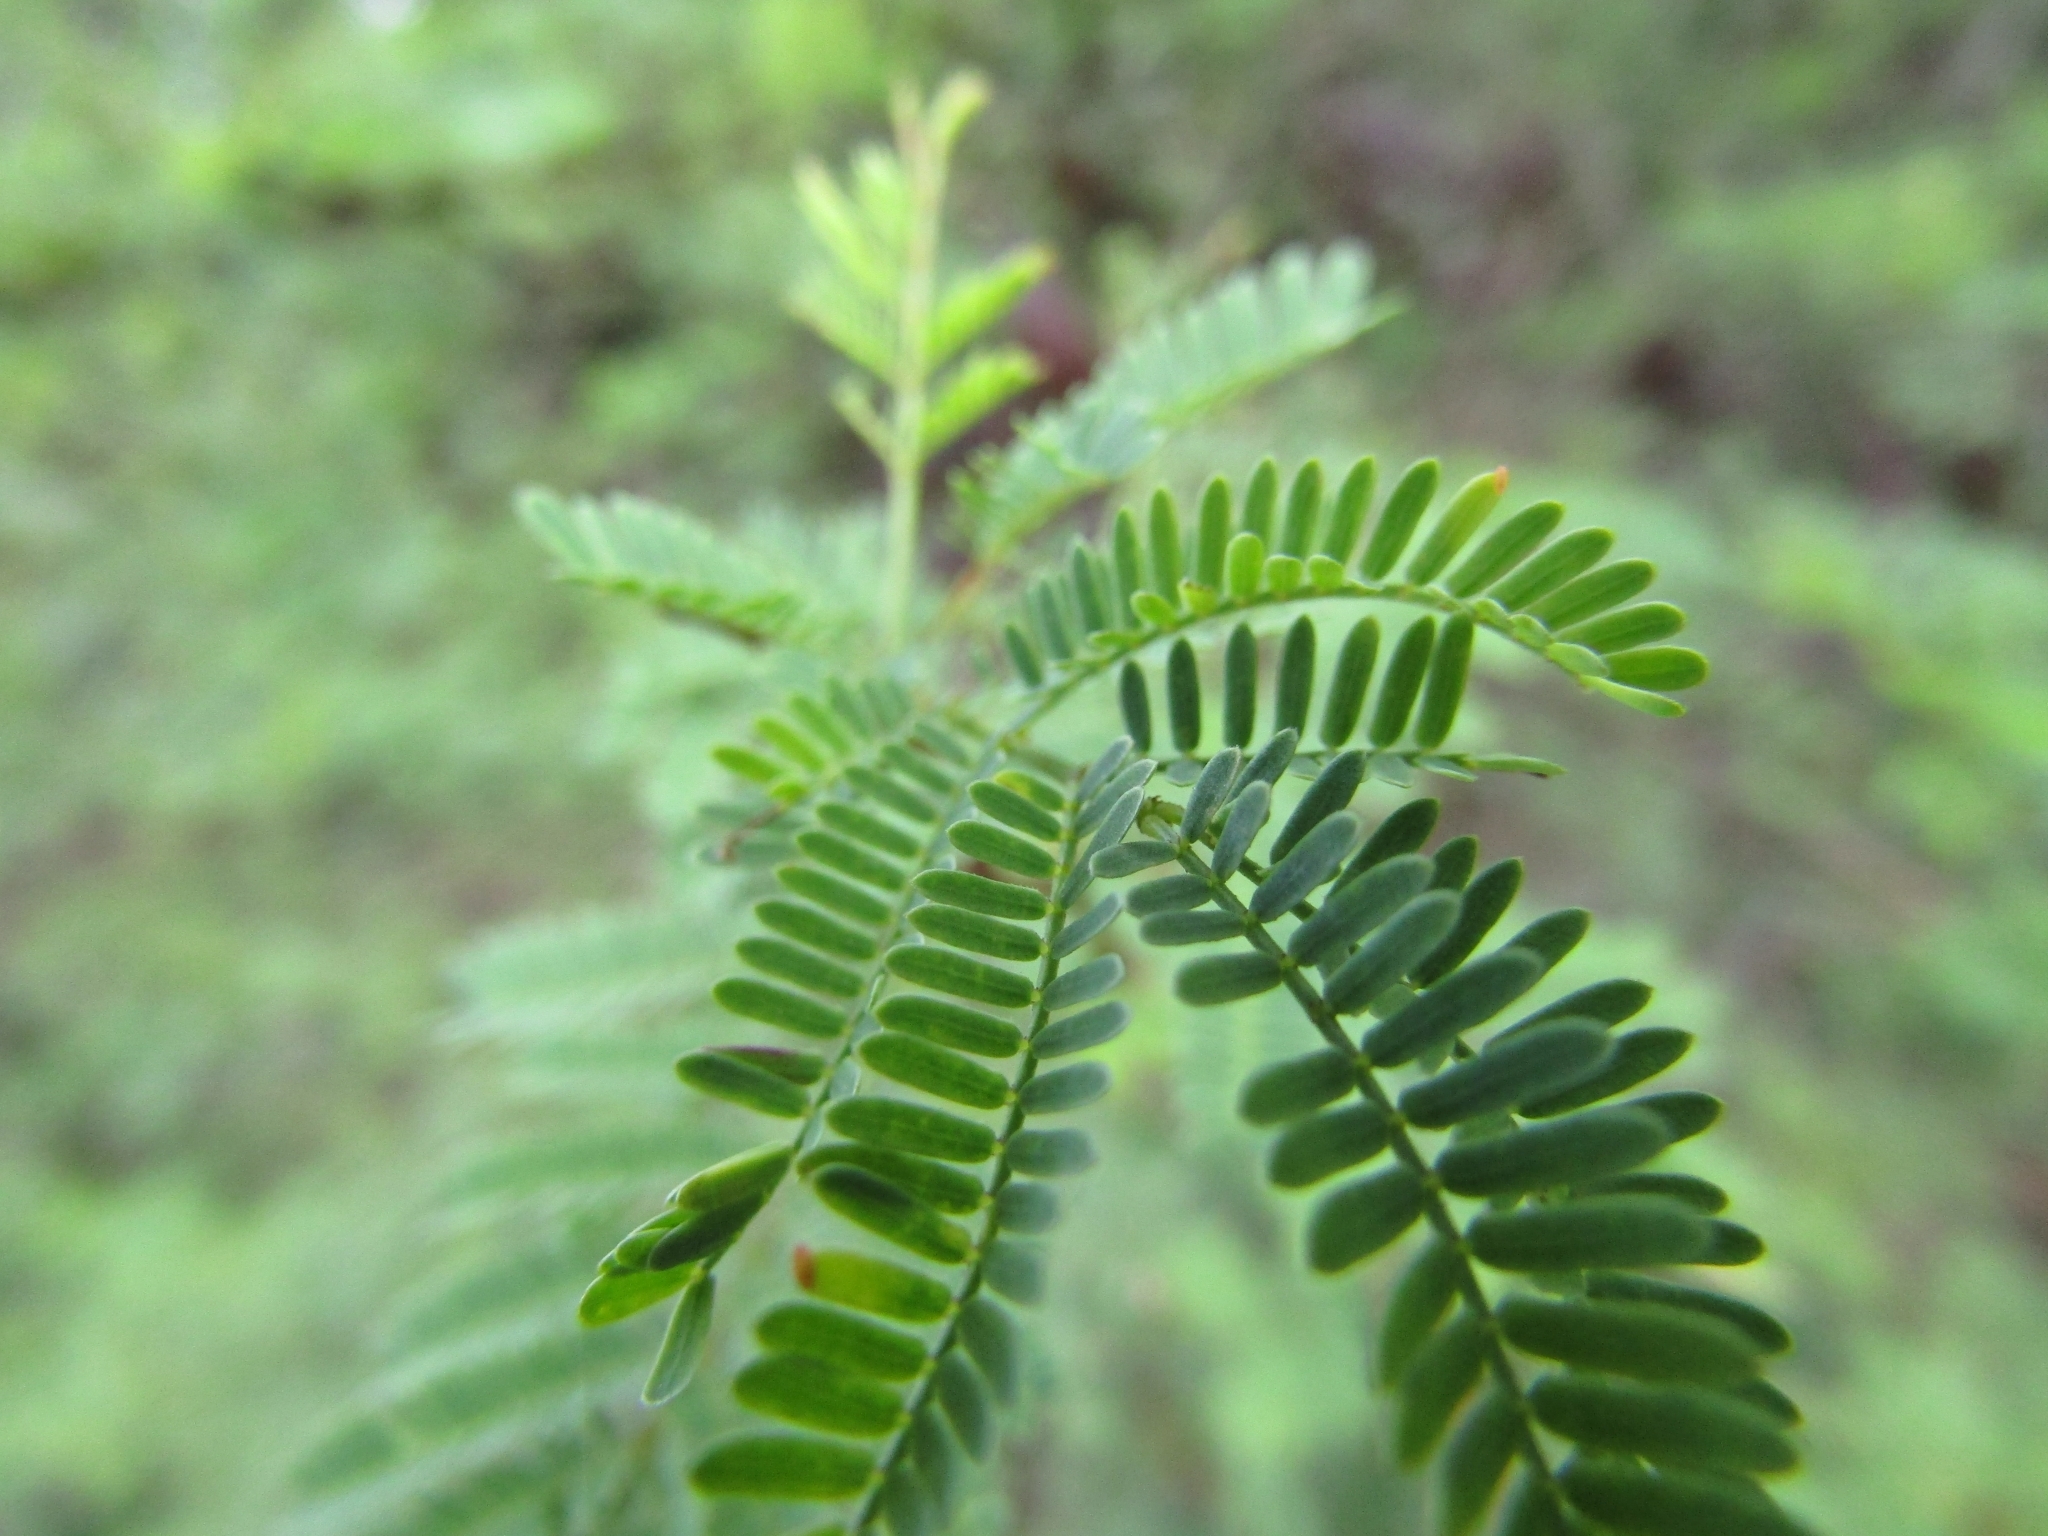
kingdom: Plantae
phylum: Tracheophyta
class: Magnoliopsida
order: Fabales
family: Fabaceae
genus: Vachellia
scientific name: Vachellia caven
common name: Roman cassie
